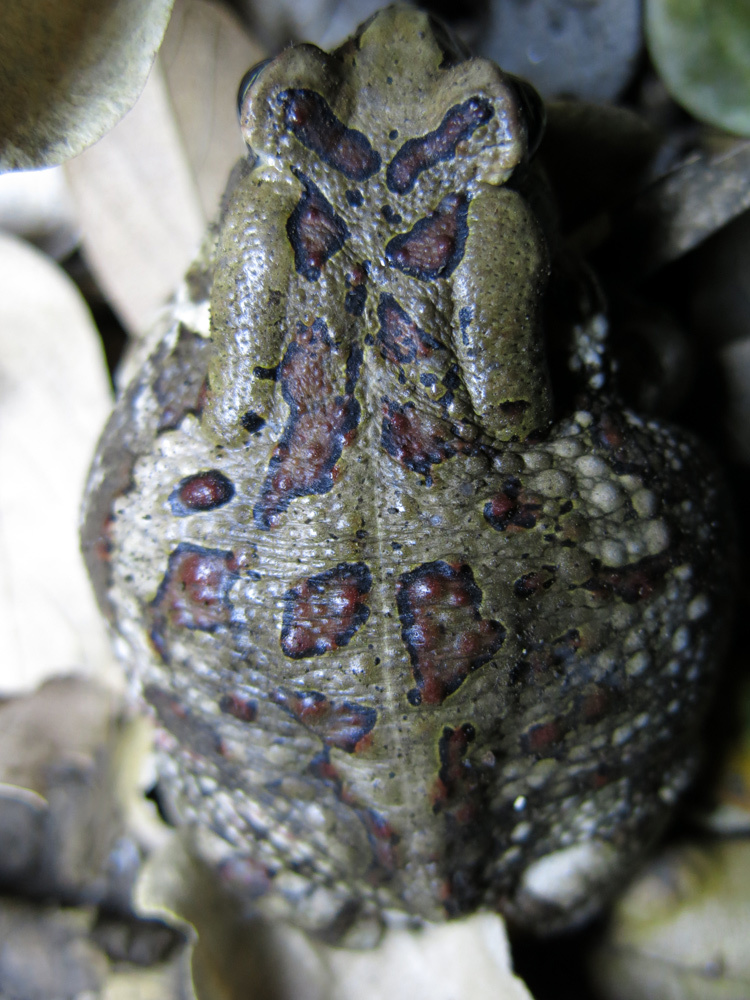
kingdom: Animalia
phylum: Chordata
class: Amphibia
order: Anura
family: Bufonidae
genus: Sclerophrys
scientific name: Sclerophrys garmani
